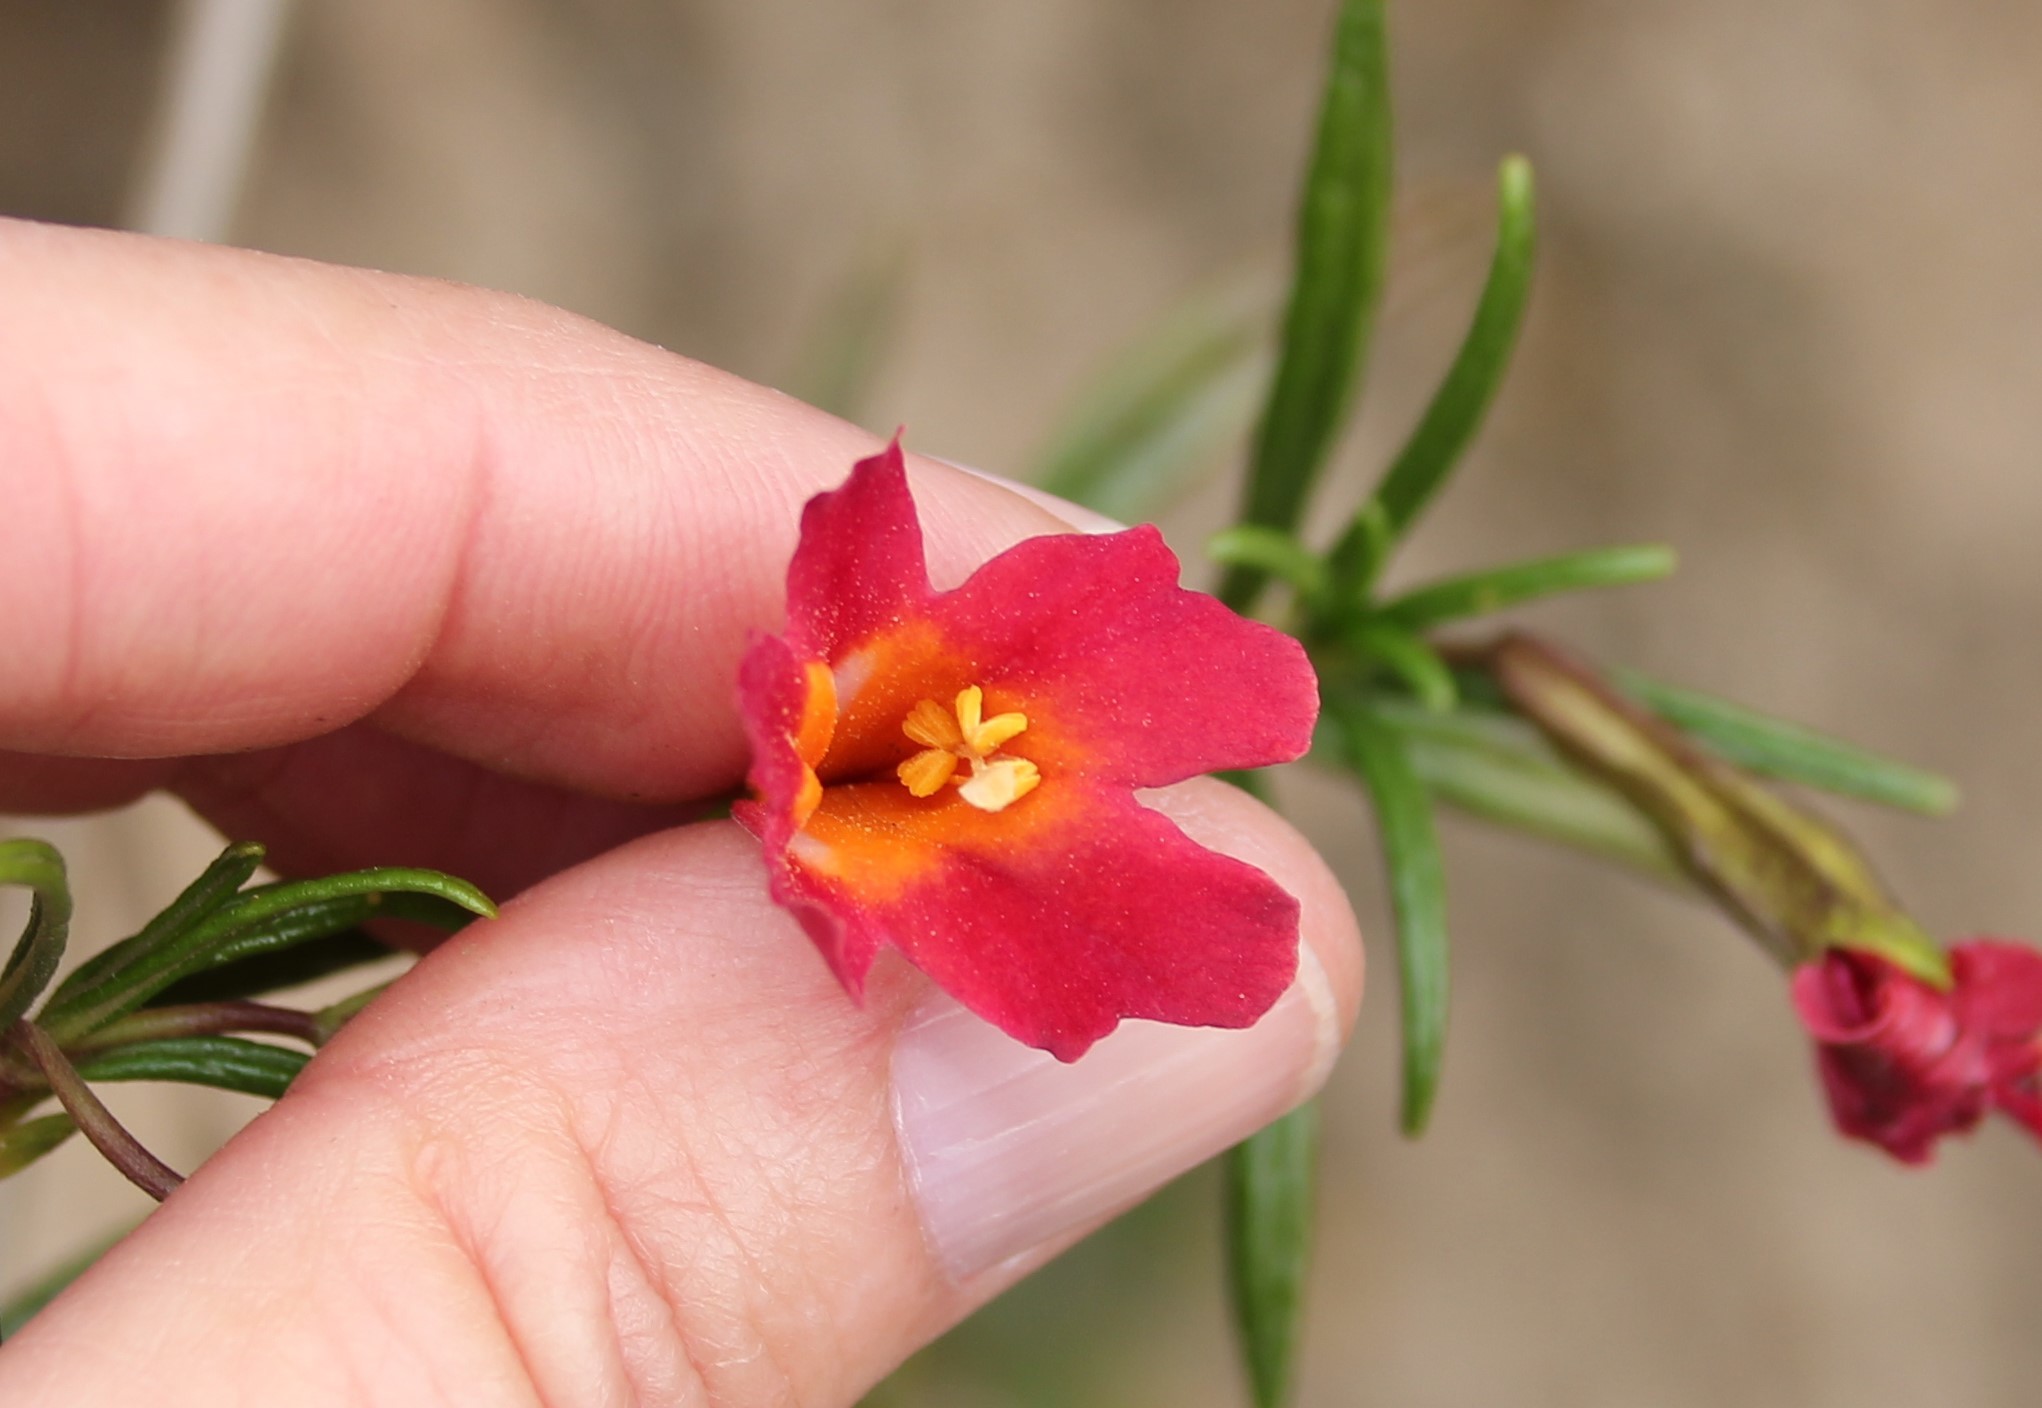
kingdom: Plantae
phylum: Tracheophyta
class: Magnoliopsida
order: Lamiales
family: Phrymaceae
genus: Diplacus
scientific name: Diplacus puniceus
